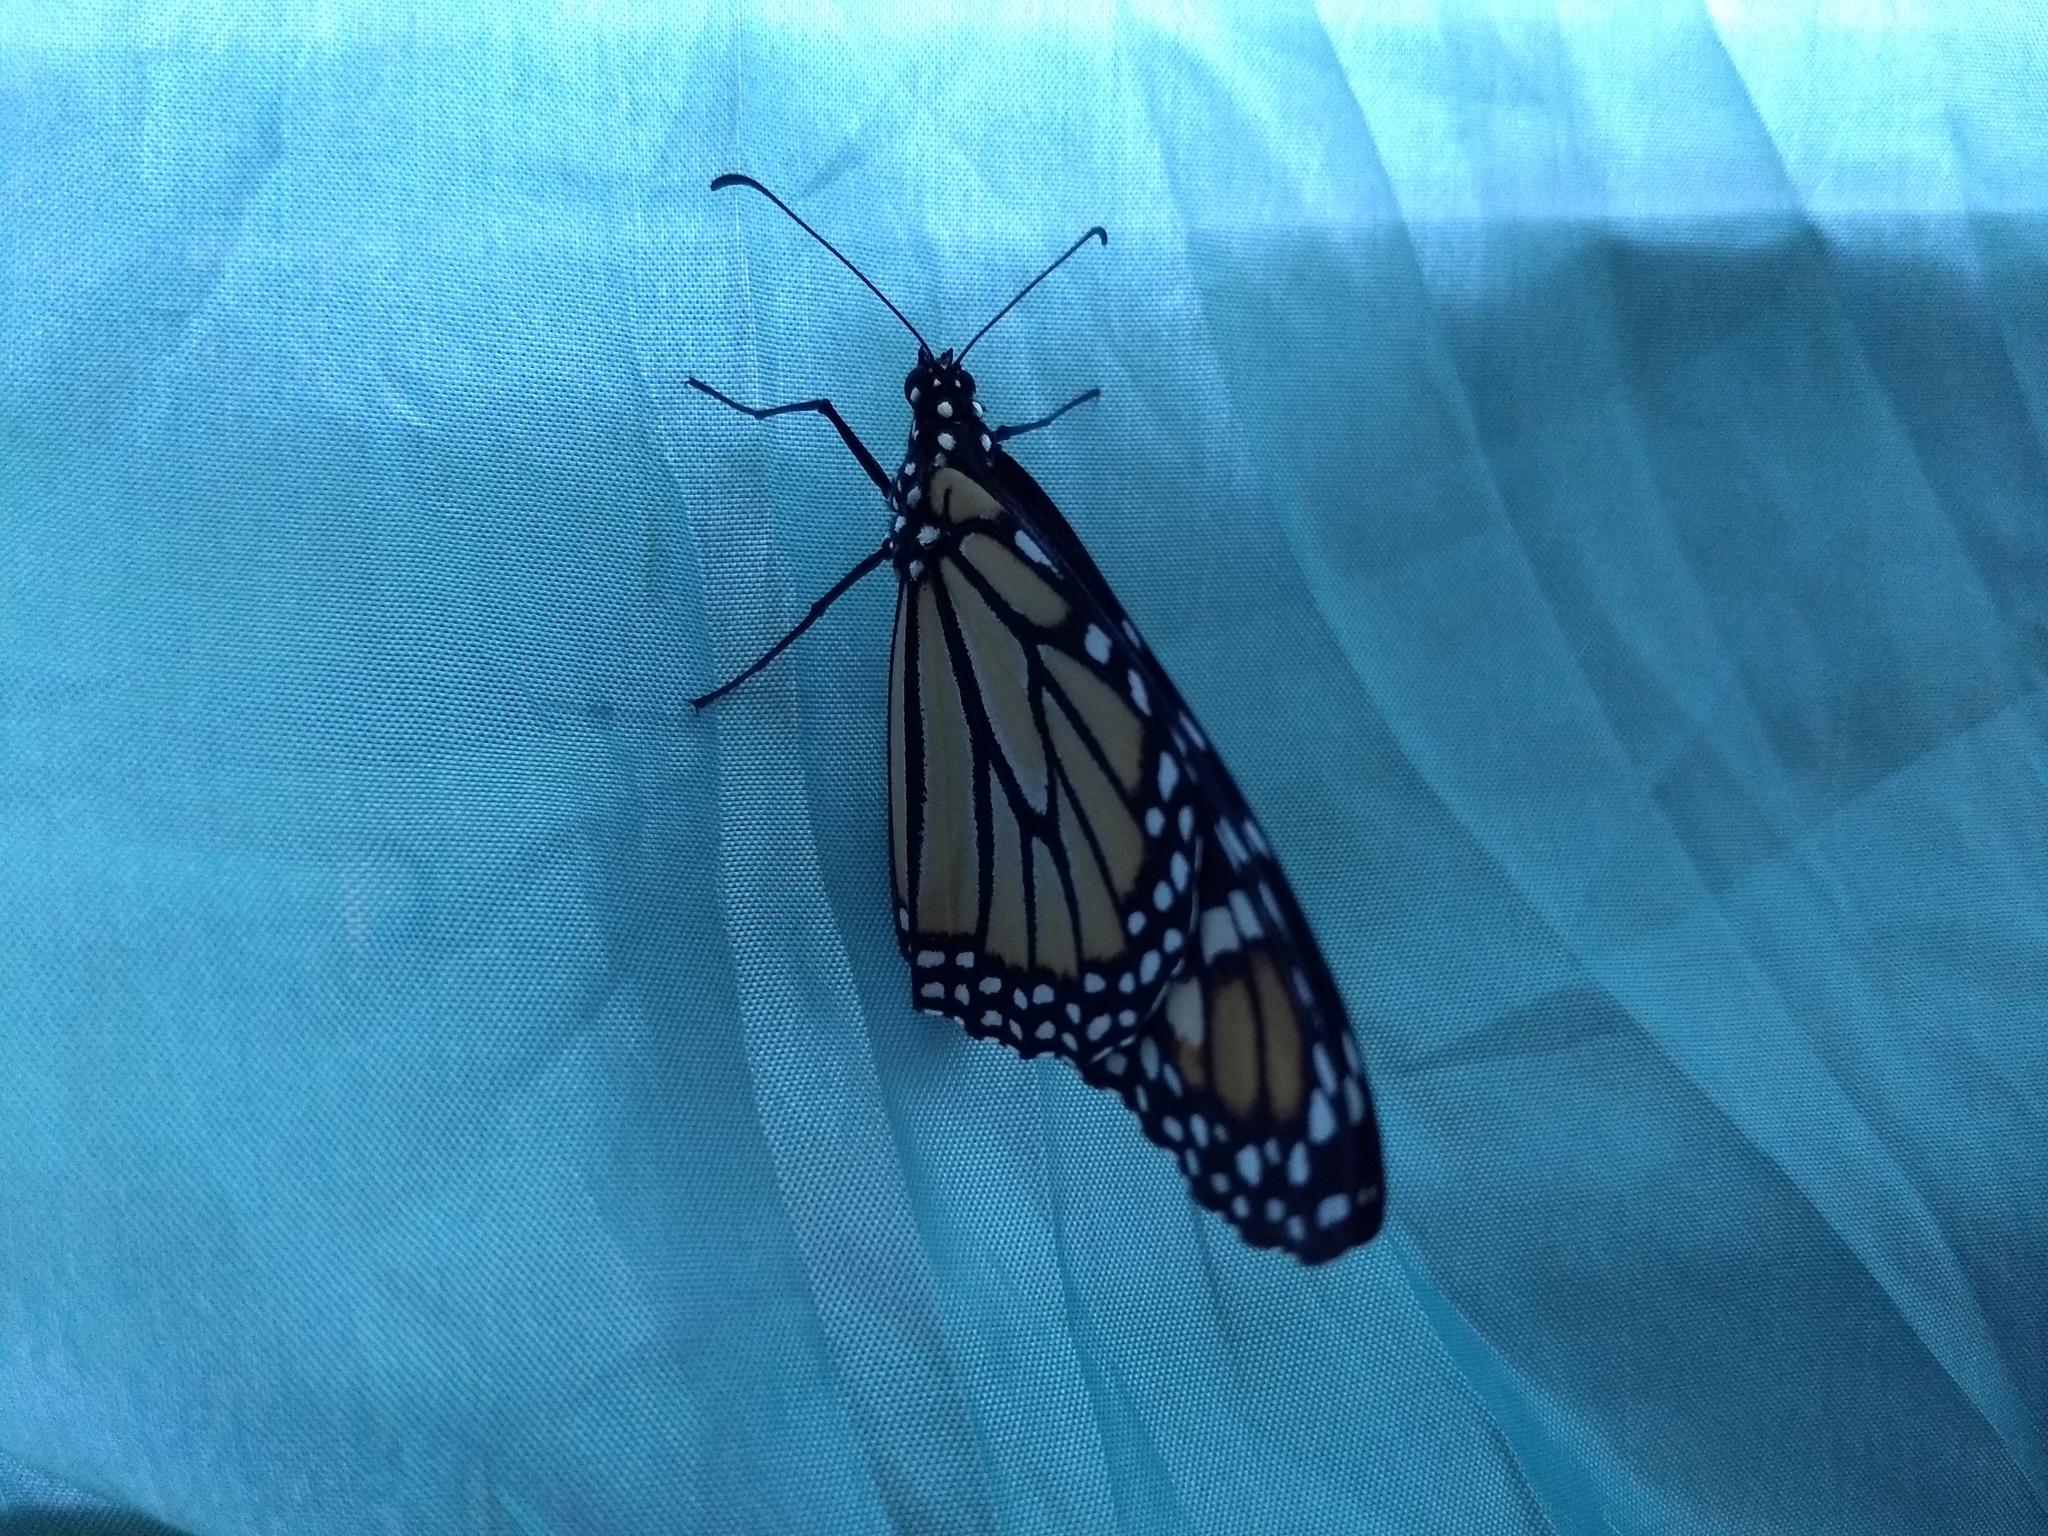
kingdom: Animalia
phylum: Arthropoda
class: Insecta
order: Lepidoptera
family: Nymphalidae
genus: Danaus
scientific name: Danaus plexippus
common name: Monarch
